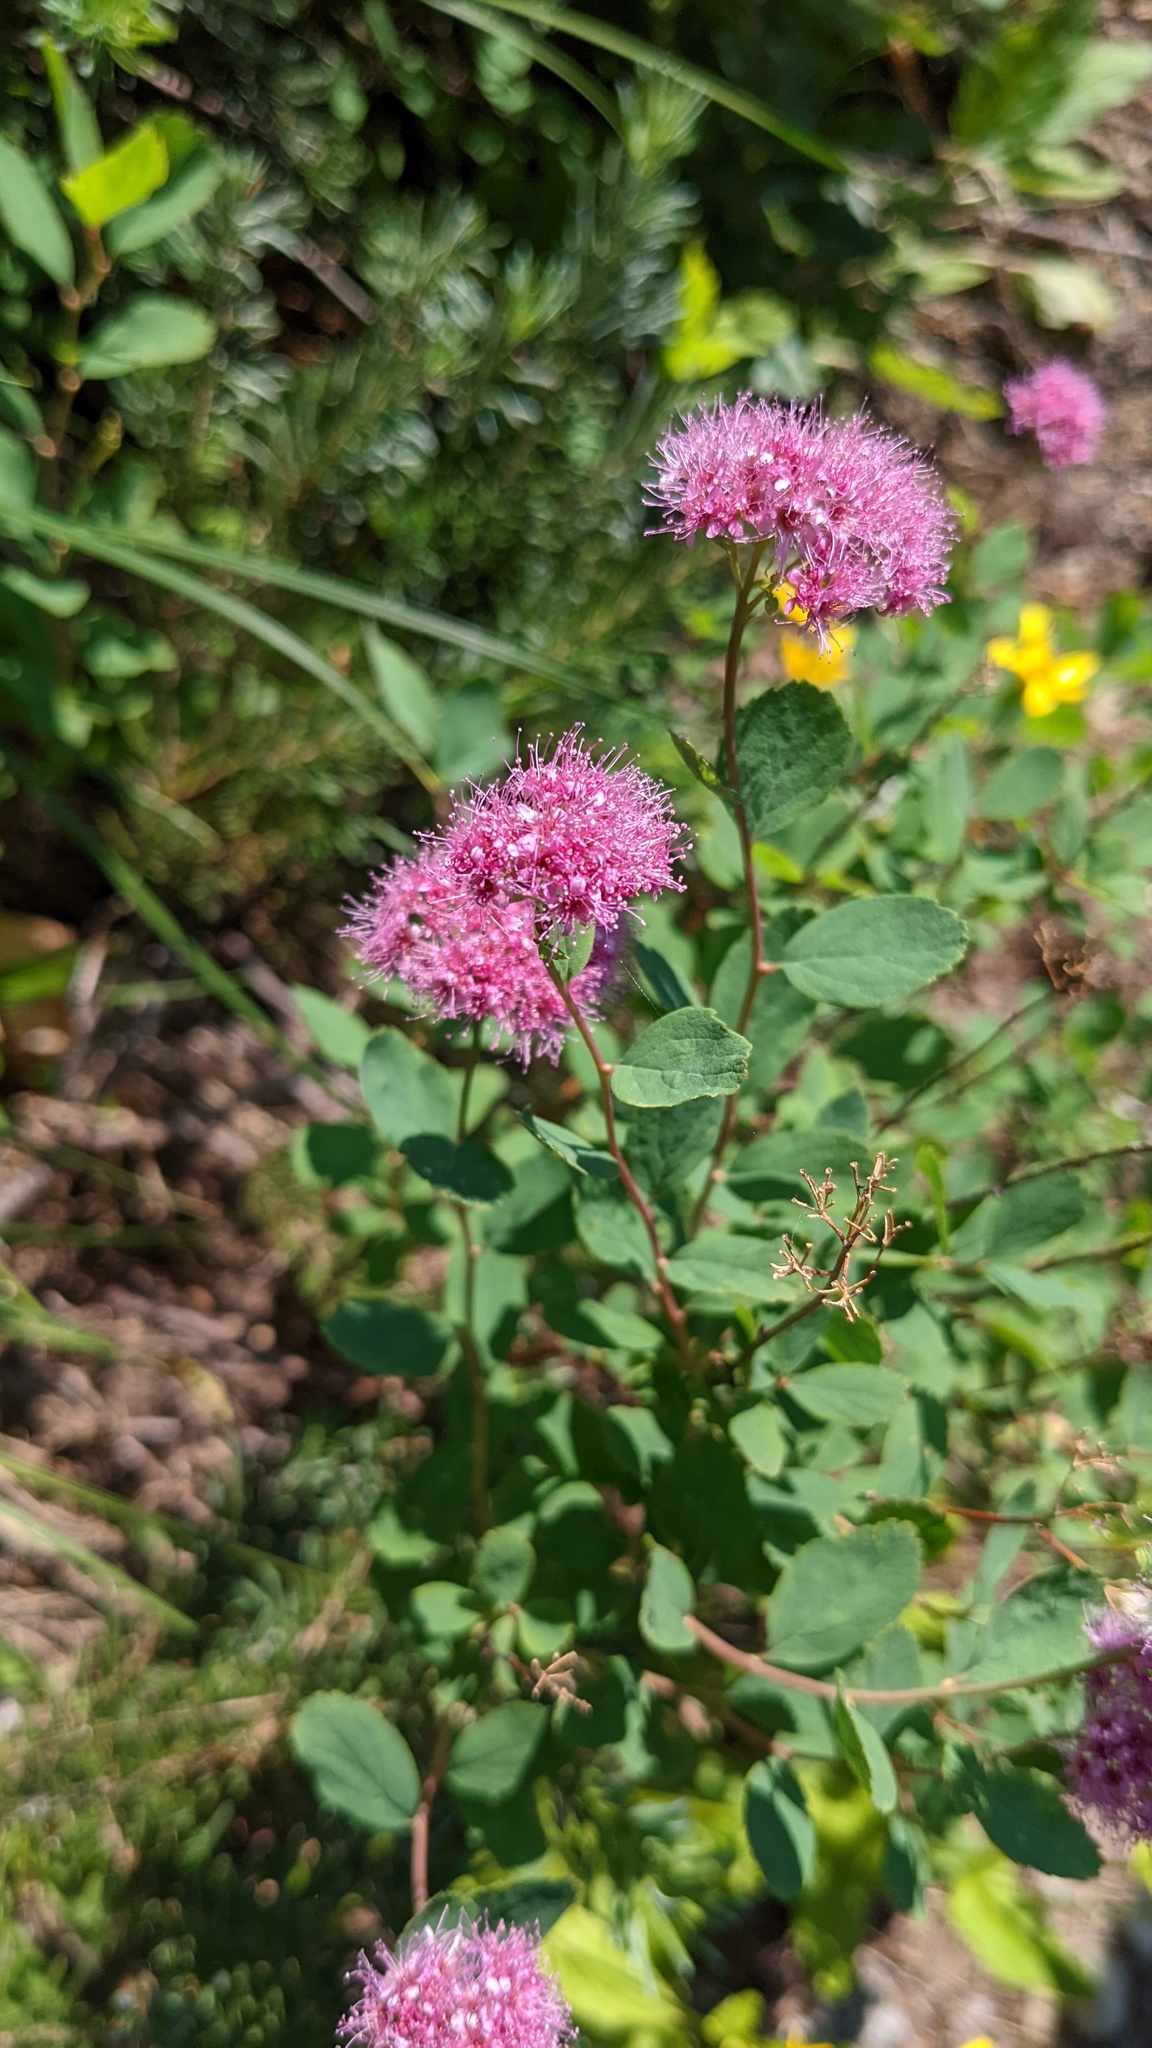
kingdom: Plantae
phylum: Tracheophyta
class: Magnoliopsida
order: Rosales
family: Rosaceae
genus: Spiraea
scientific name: Spiraea splendens
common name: Subalpine meadowsweet
